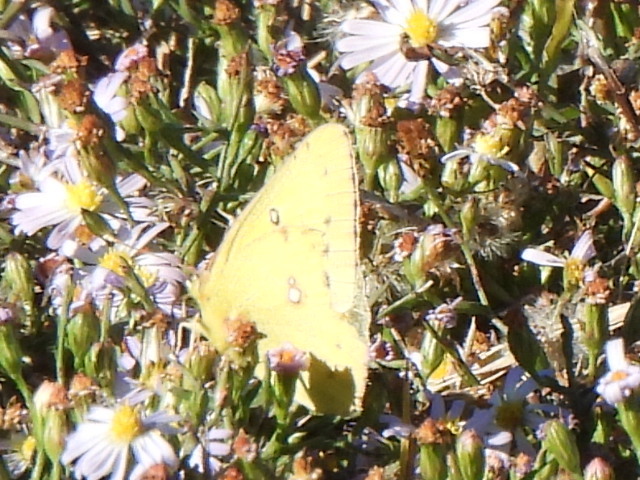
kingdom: Animalia
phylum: Arthropoda
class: Insecta
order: Lepidoptera
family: Pieridae
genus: Colias
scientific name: Colias eurytheme
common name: Alfalfa butterfly
